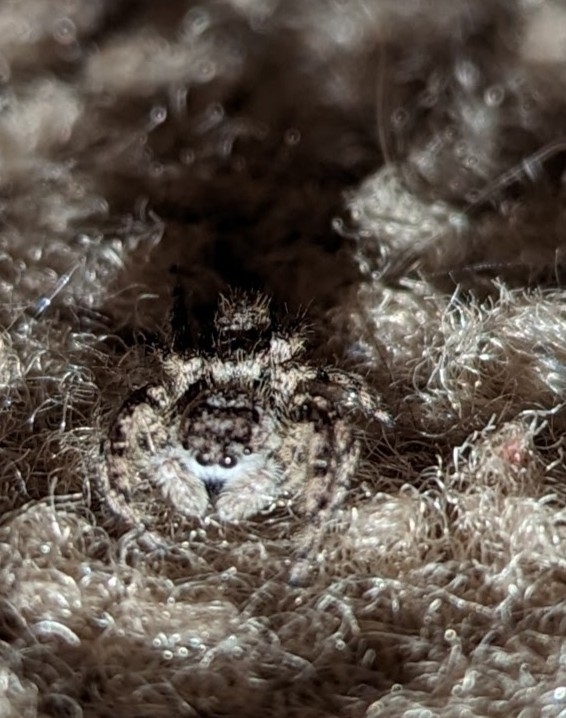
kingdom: Animalia
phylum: Arthropoda
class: Arachnida
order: Araneae
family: Salticidae
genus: Platycryptus
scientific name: Platycryptus undatus
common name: Tan jumping spider
